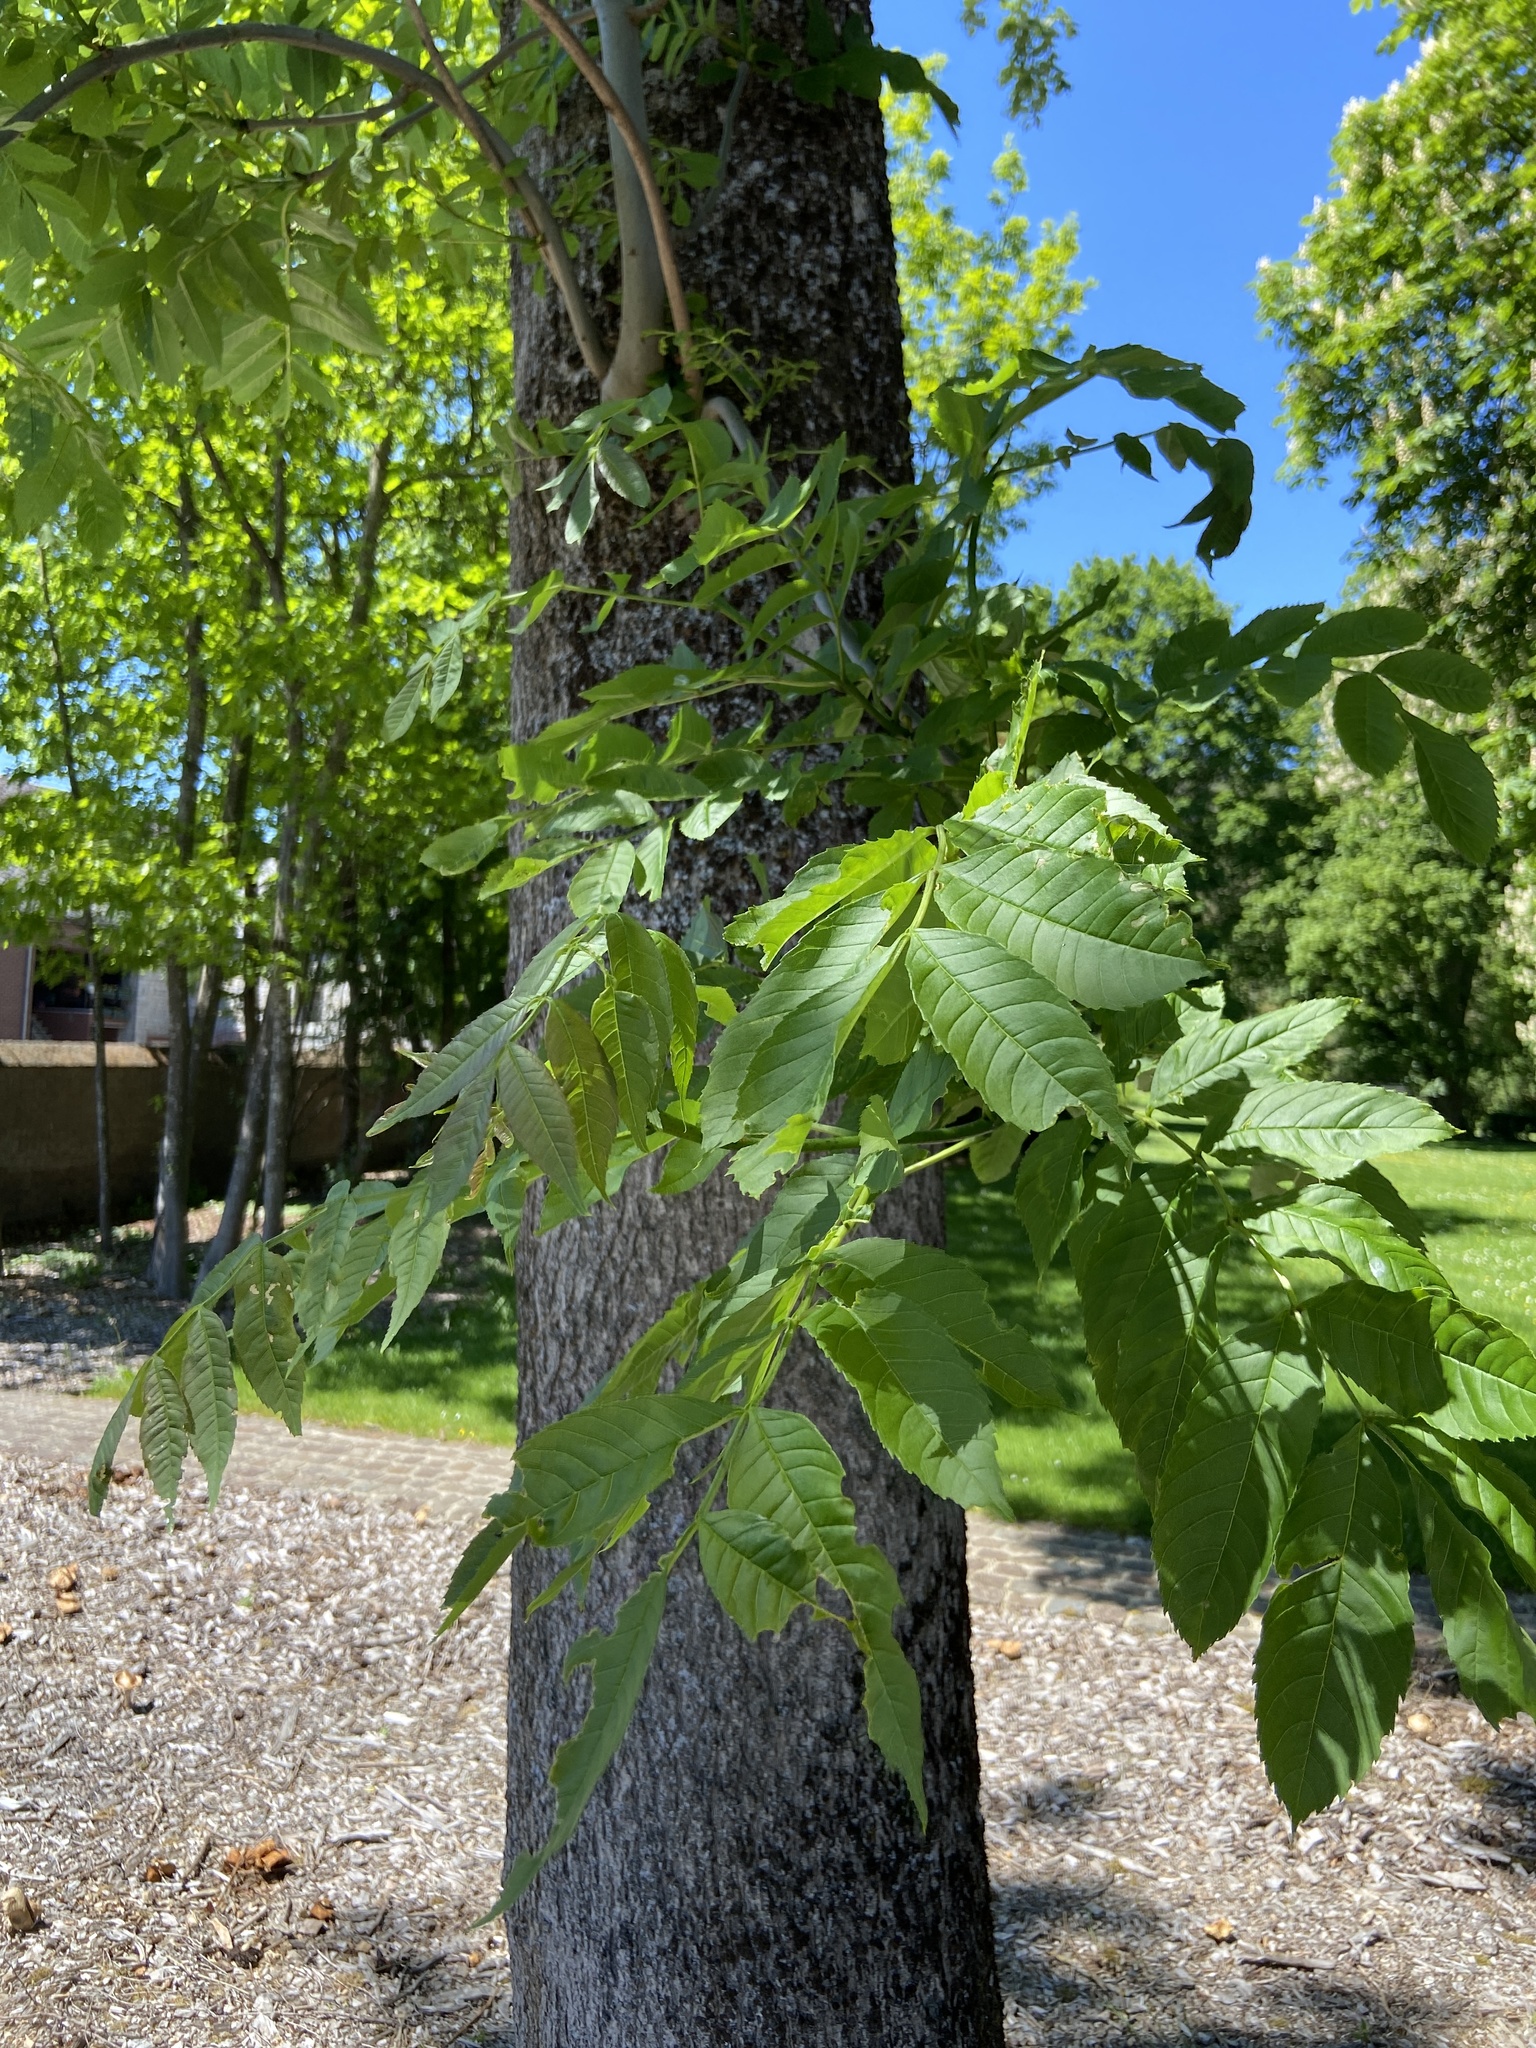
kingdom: Plantae
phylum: Tracheophyta
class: Magnoliopsida
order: Lamiales
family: Oleaceae
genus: Fraxinus
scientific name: Fraxinus excelsior
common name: European ash
